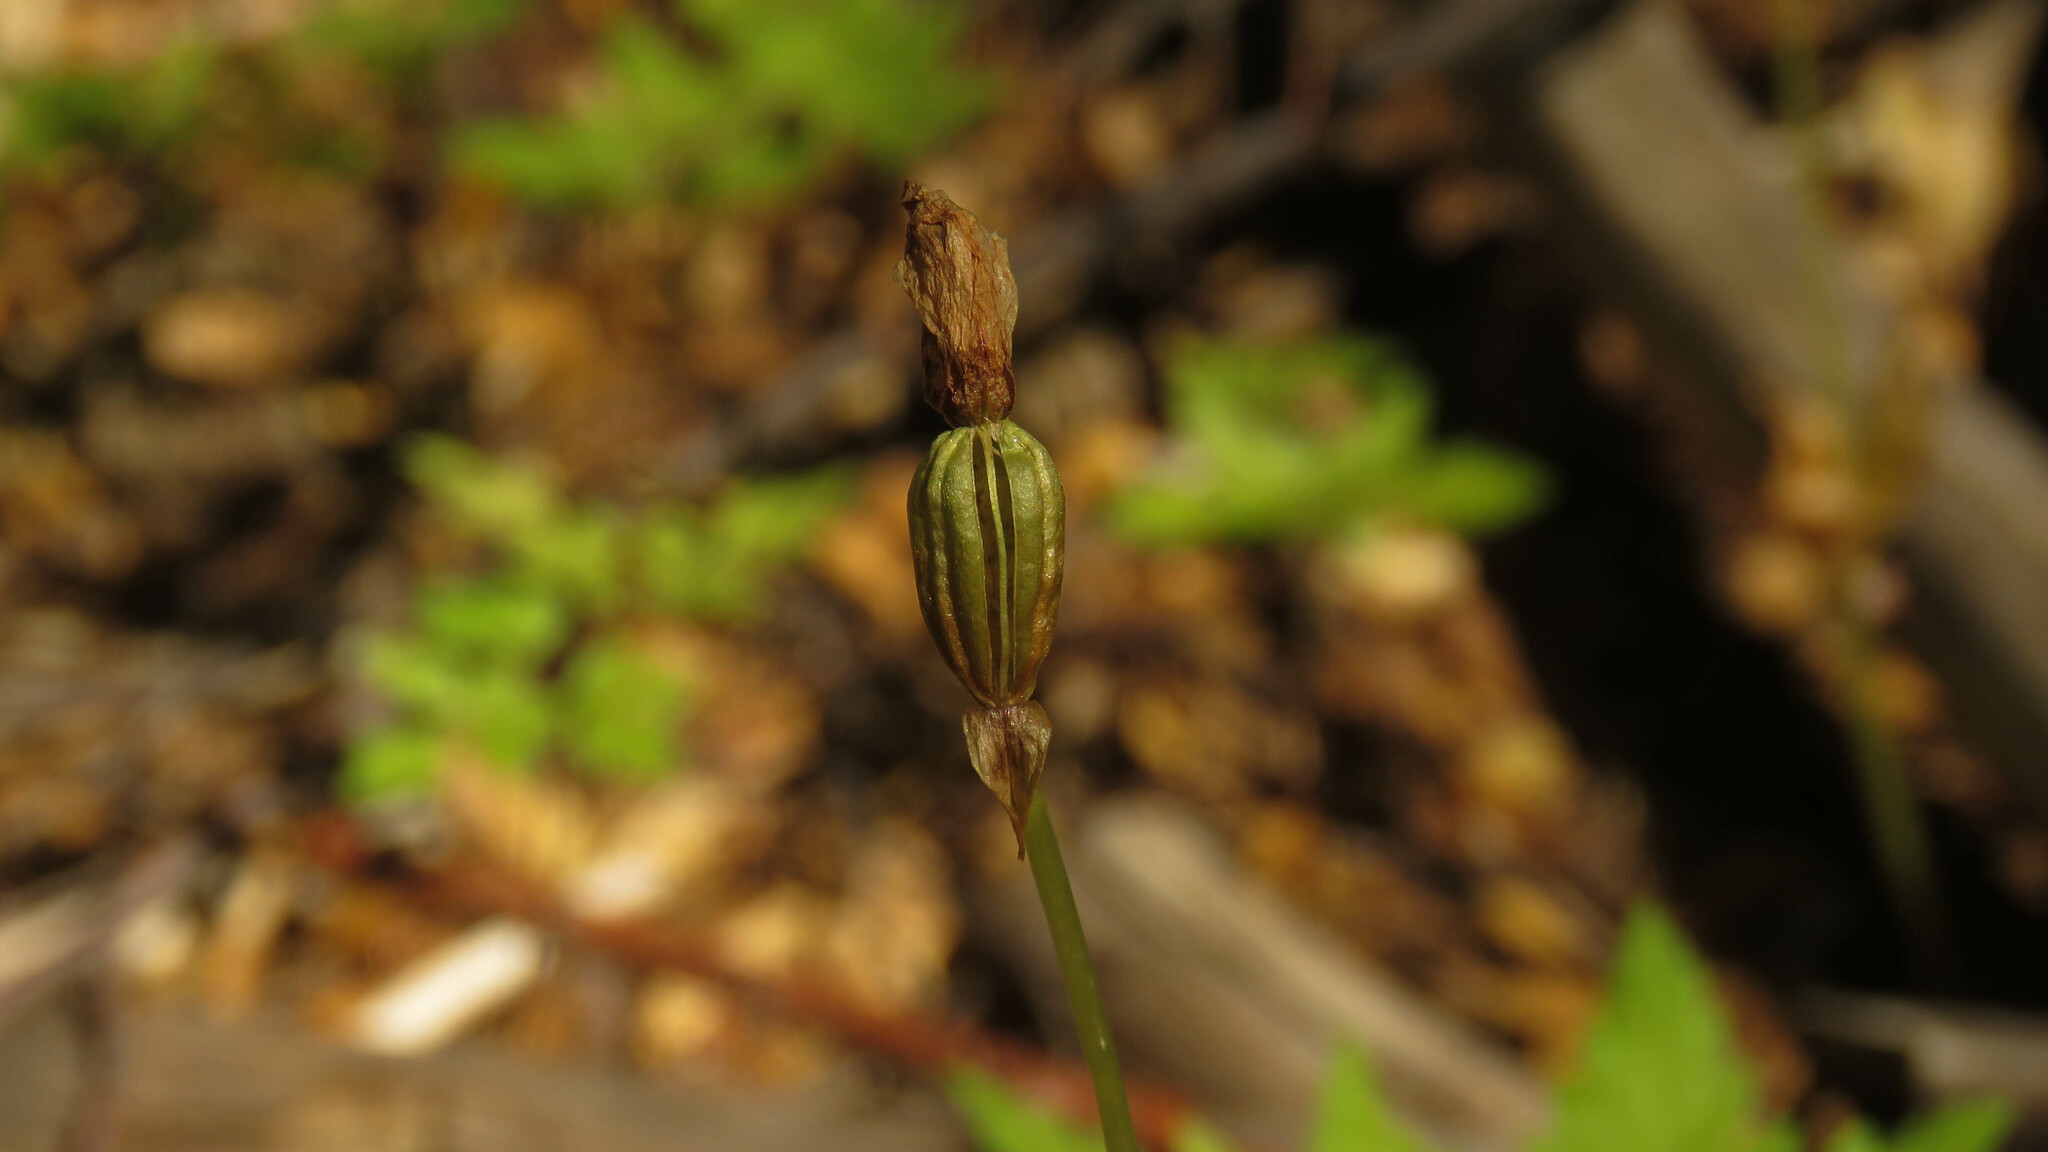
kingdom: Plantae
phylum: Tracheophyta
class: Liliopsida
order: Asparagales
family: Orchidaceae
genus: Codonorchis
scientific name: Codonorchis lessonii
